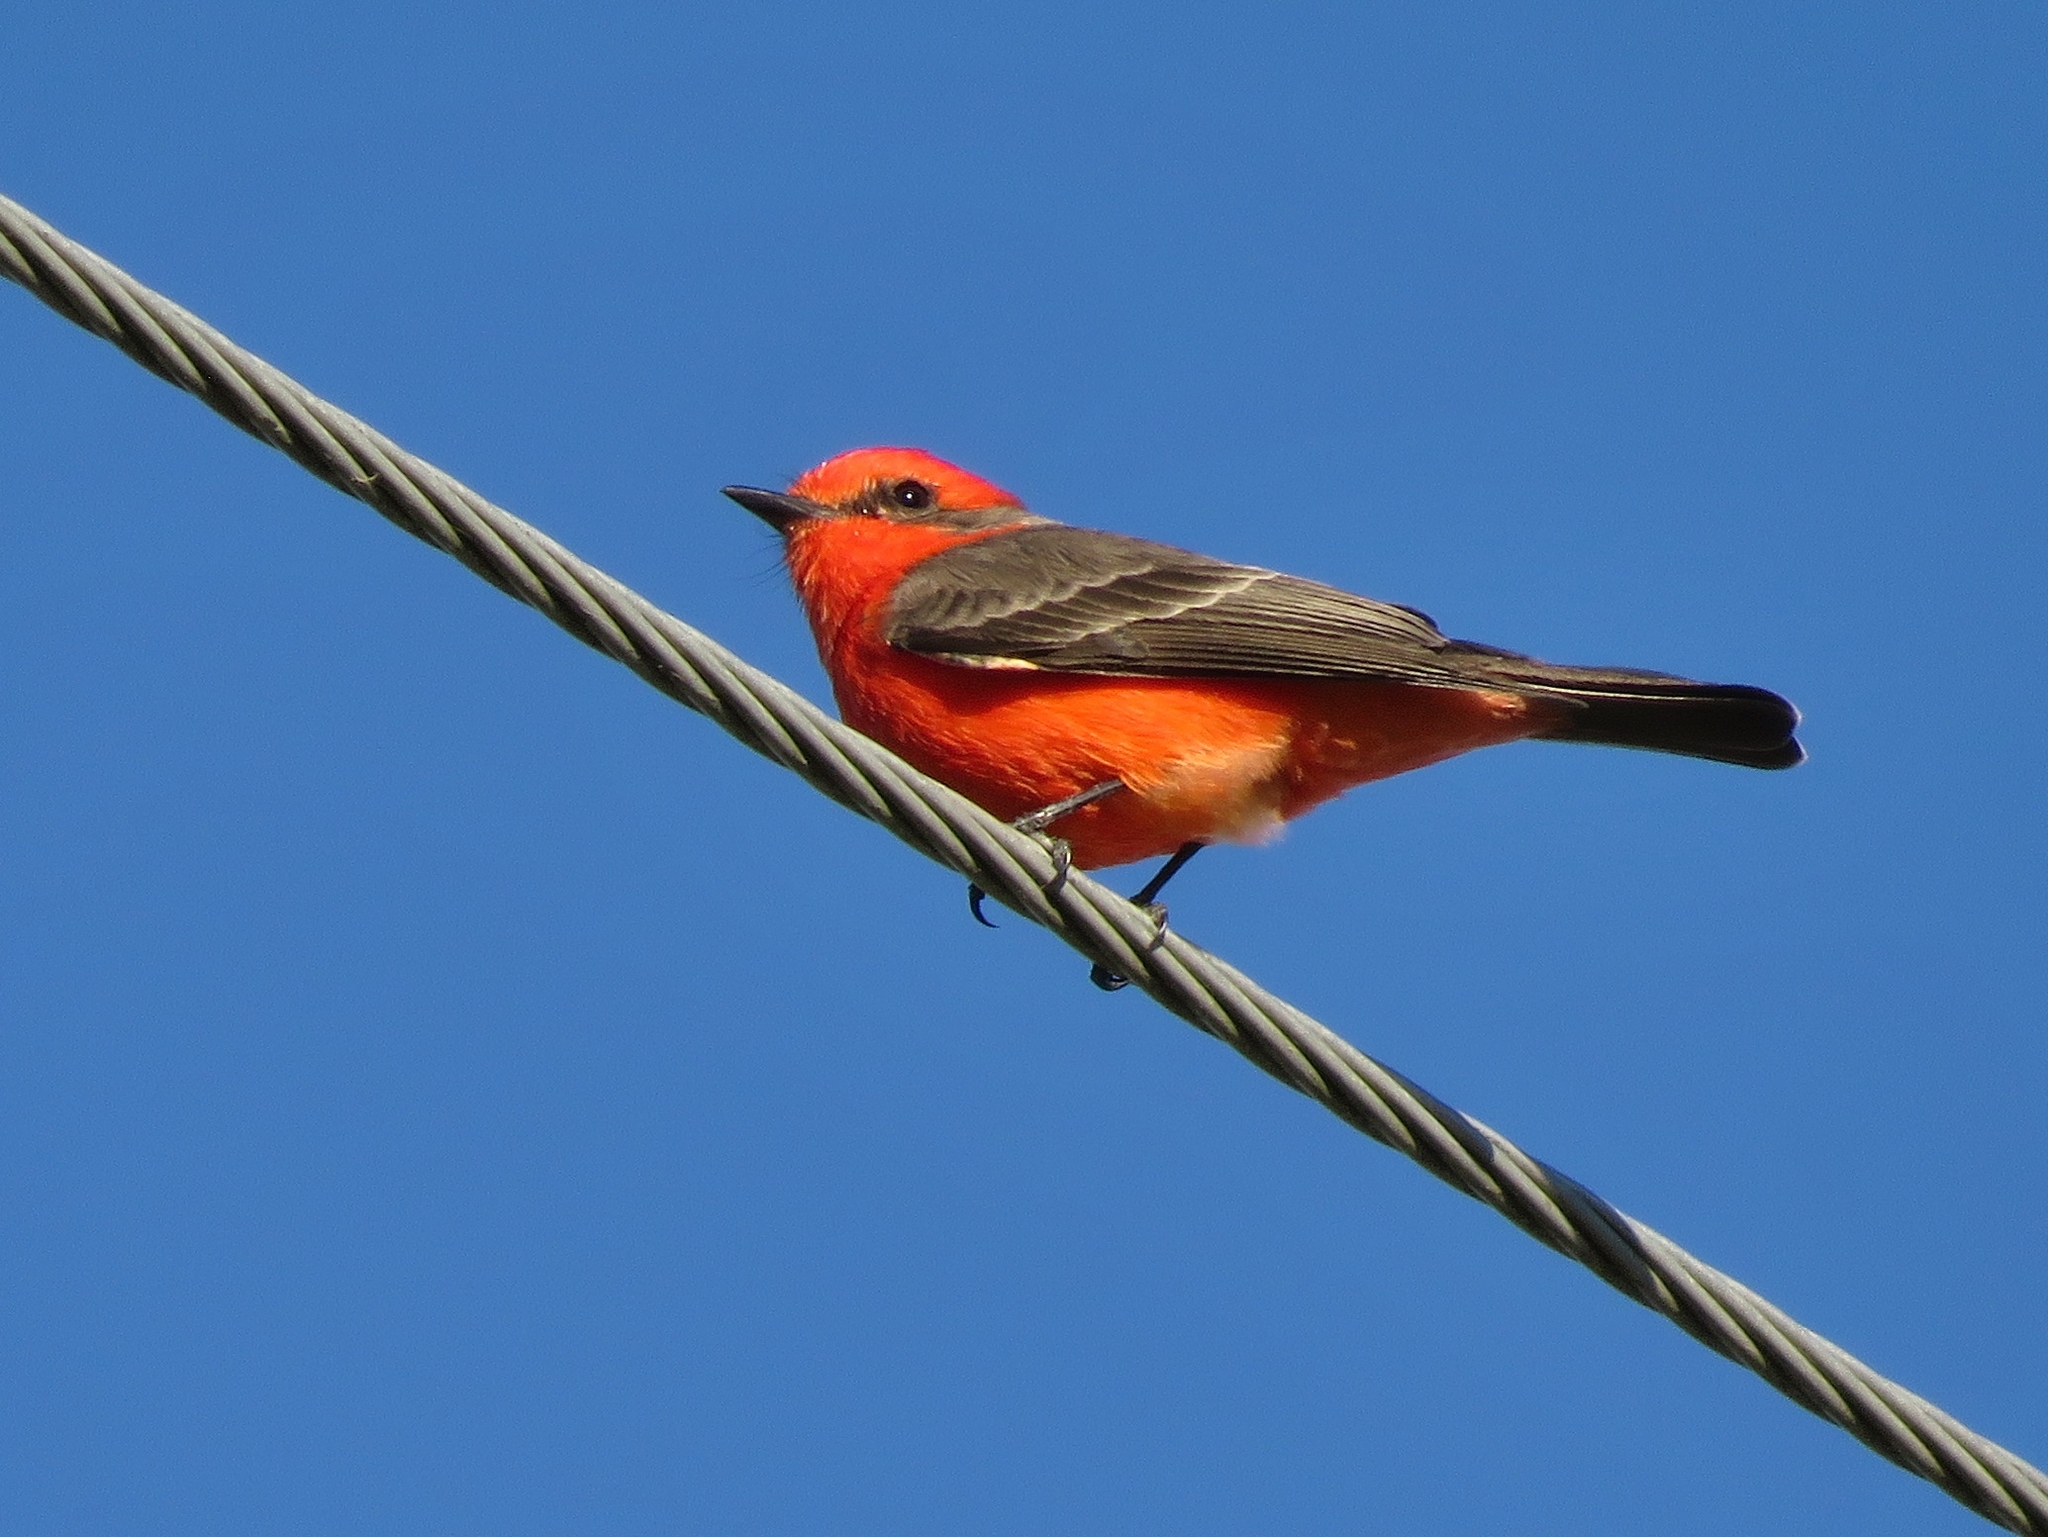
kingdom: Animalia
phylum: Chordata
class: Aves
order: Passeriformes
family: Tyrannidae
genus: Pyrocephalus
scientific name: Pyrocephalus rubinus
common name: Vermilion flycatcher
